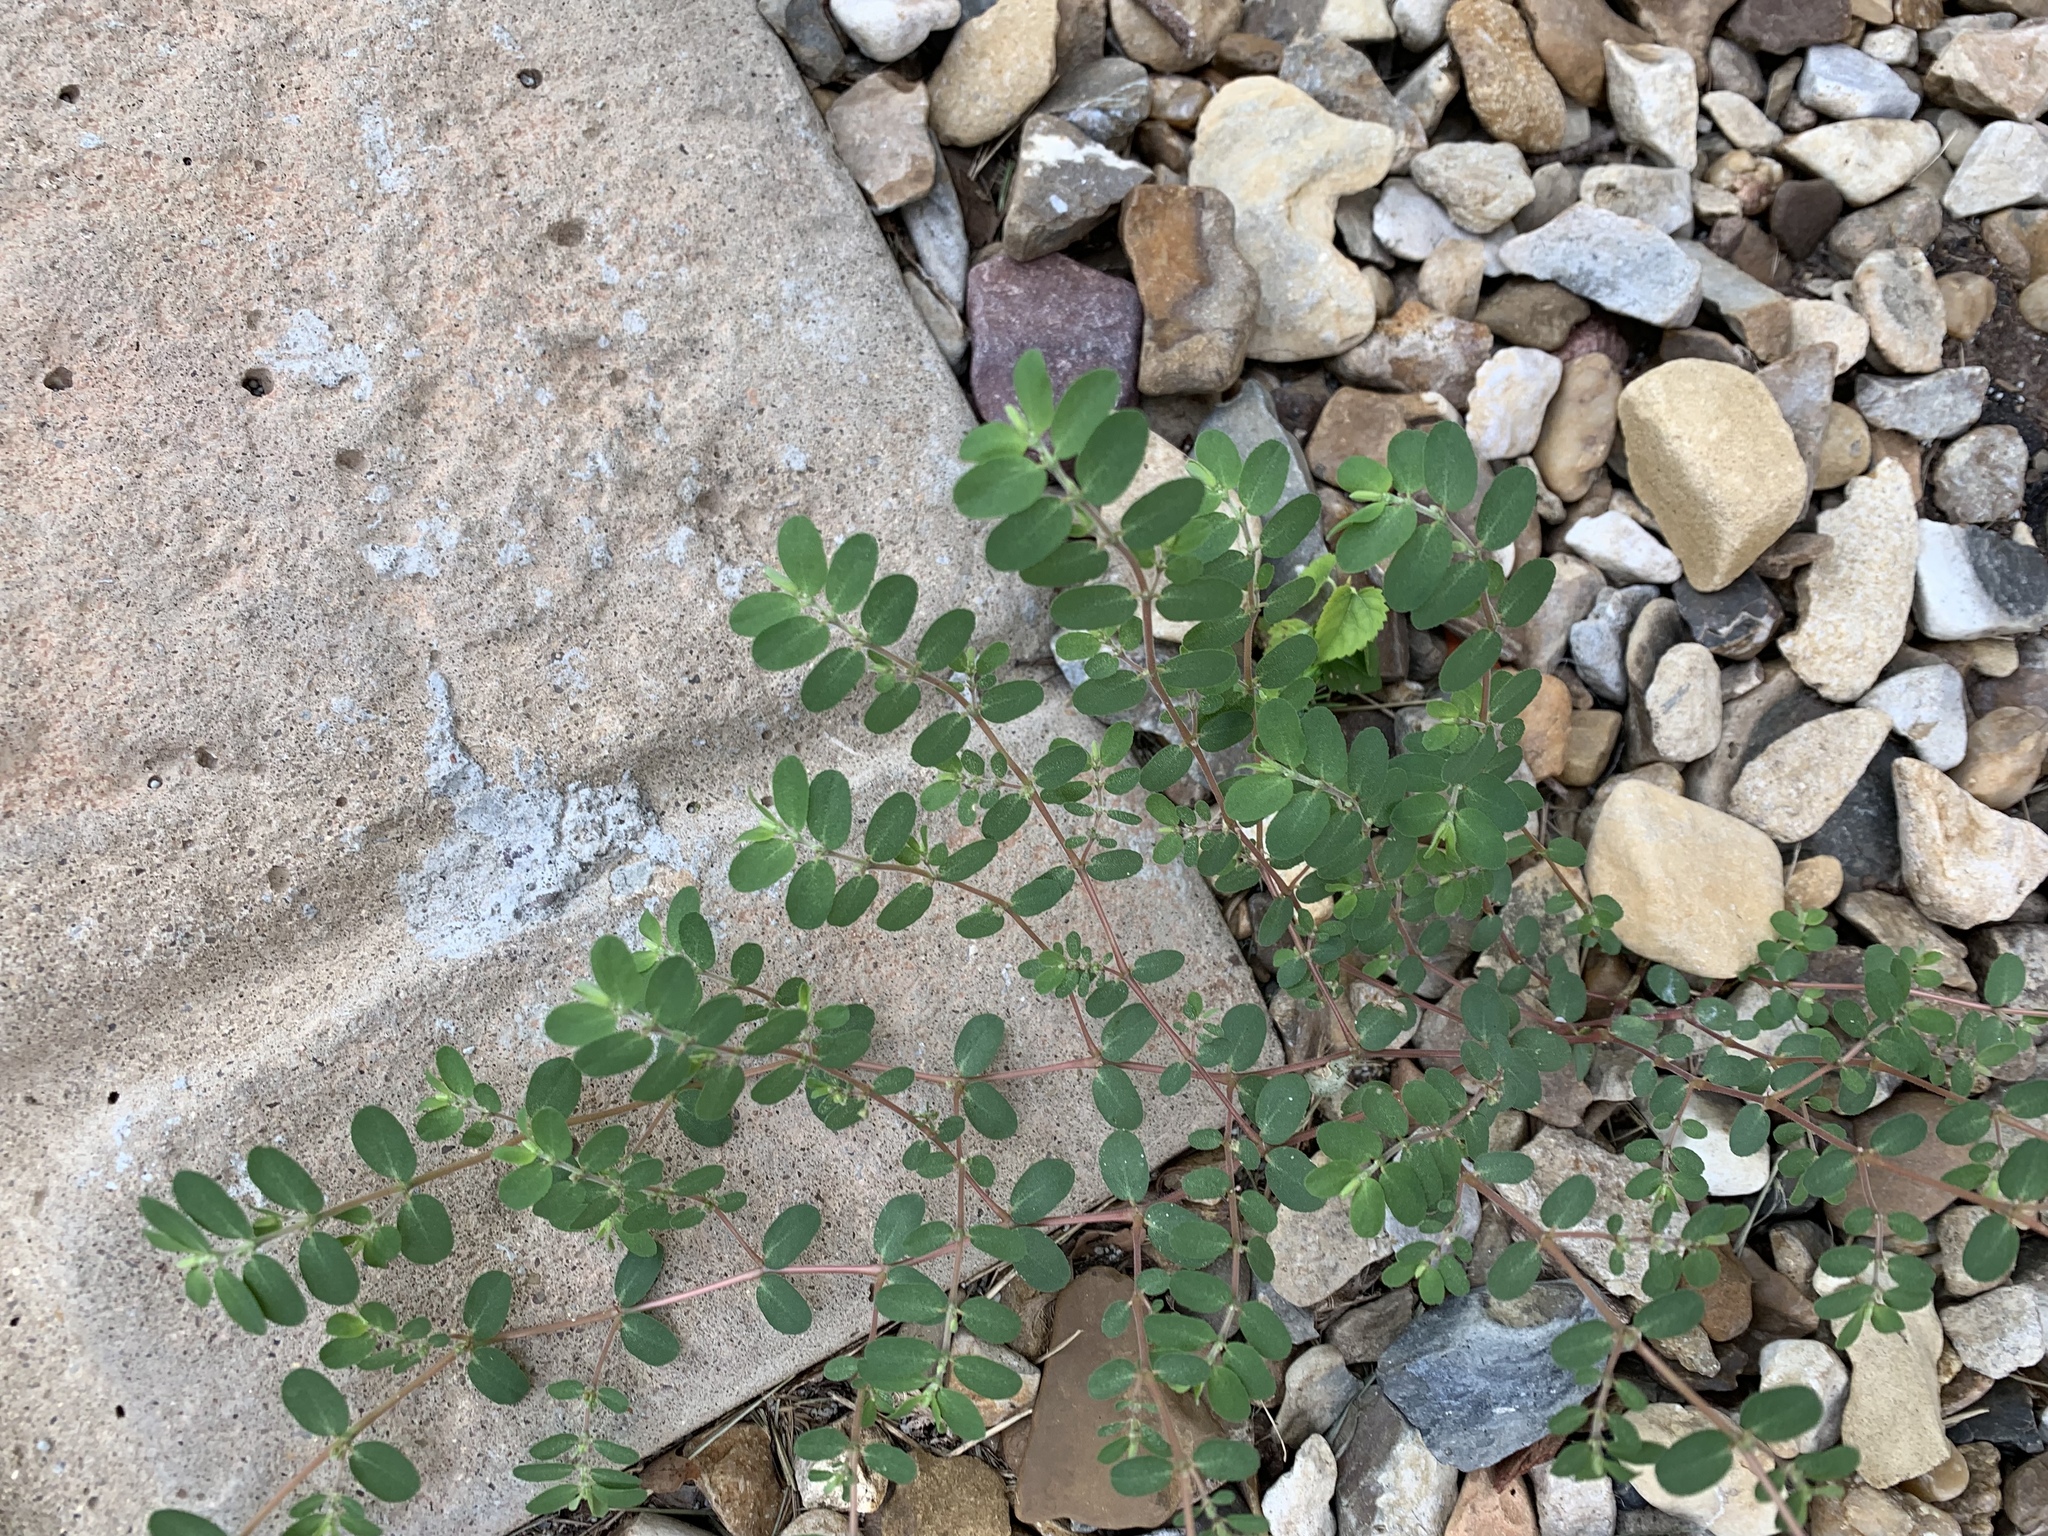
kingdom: Plantae
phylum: Tracheophyta
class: Magnoliopsida
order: Malpighiales
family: Euphorbiaceae
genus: Euphorbia
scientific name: Euphorbia prostrata
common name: Prostrate sandmat
